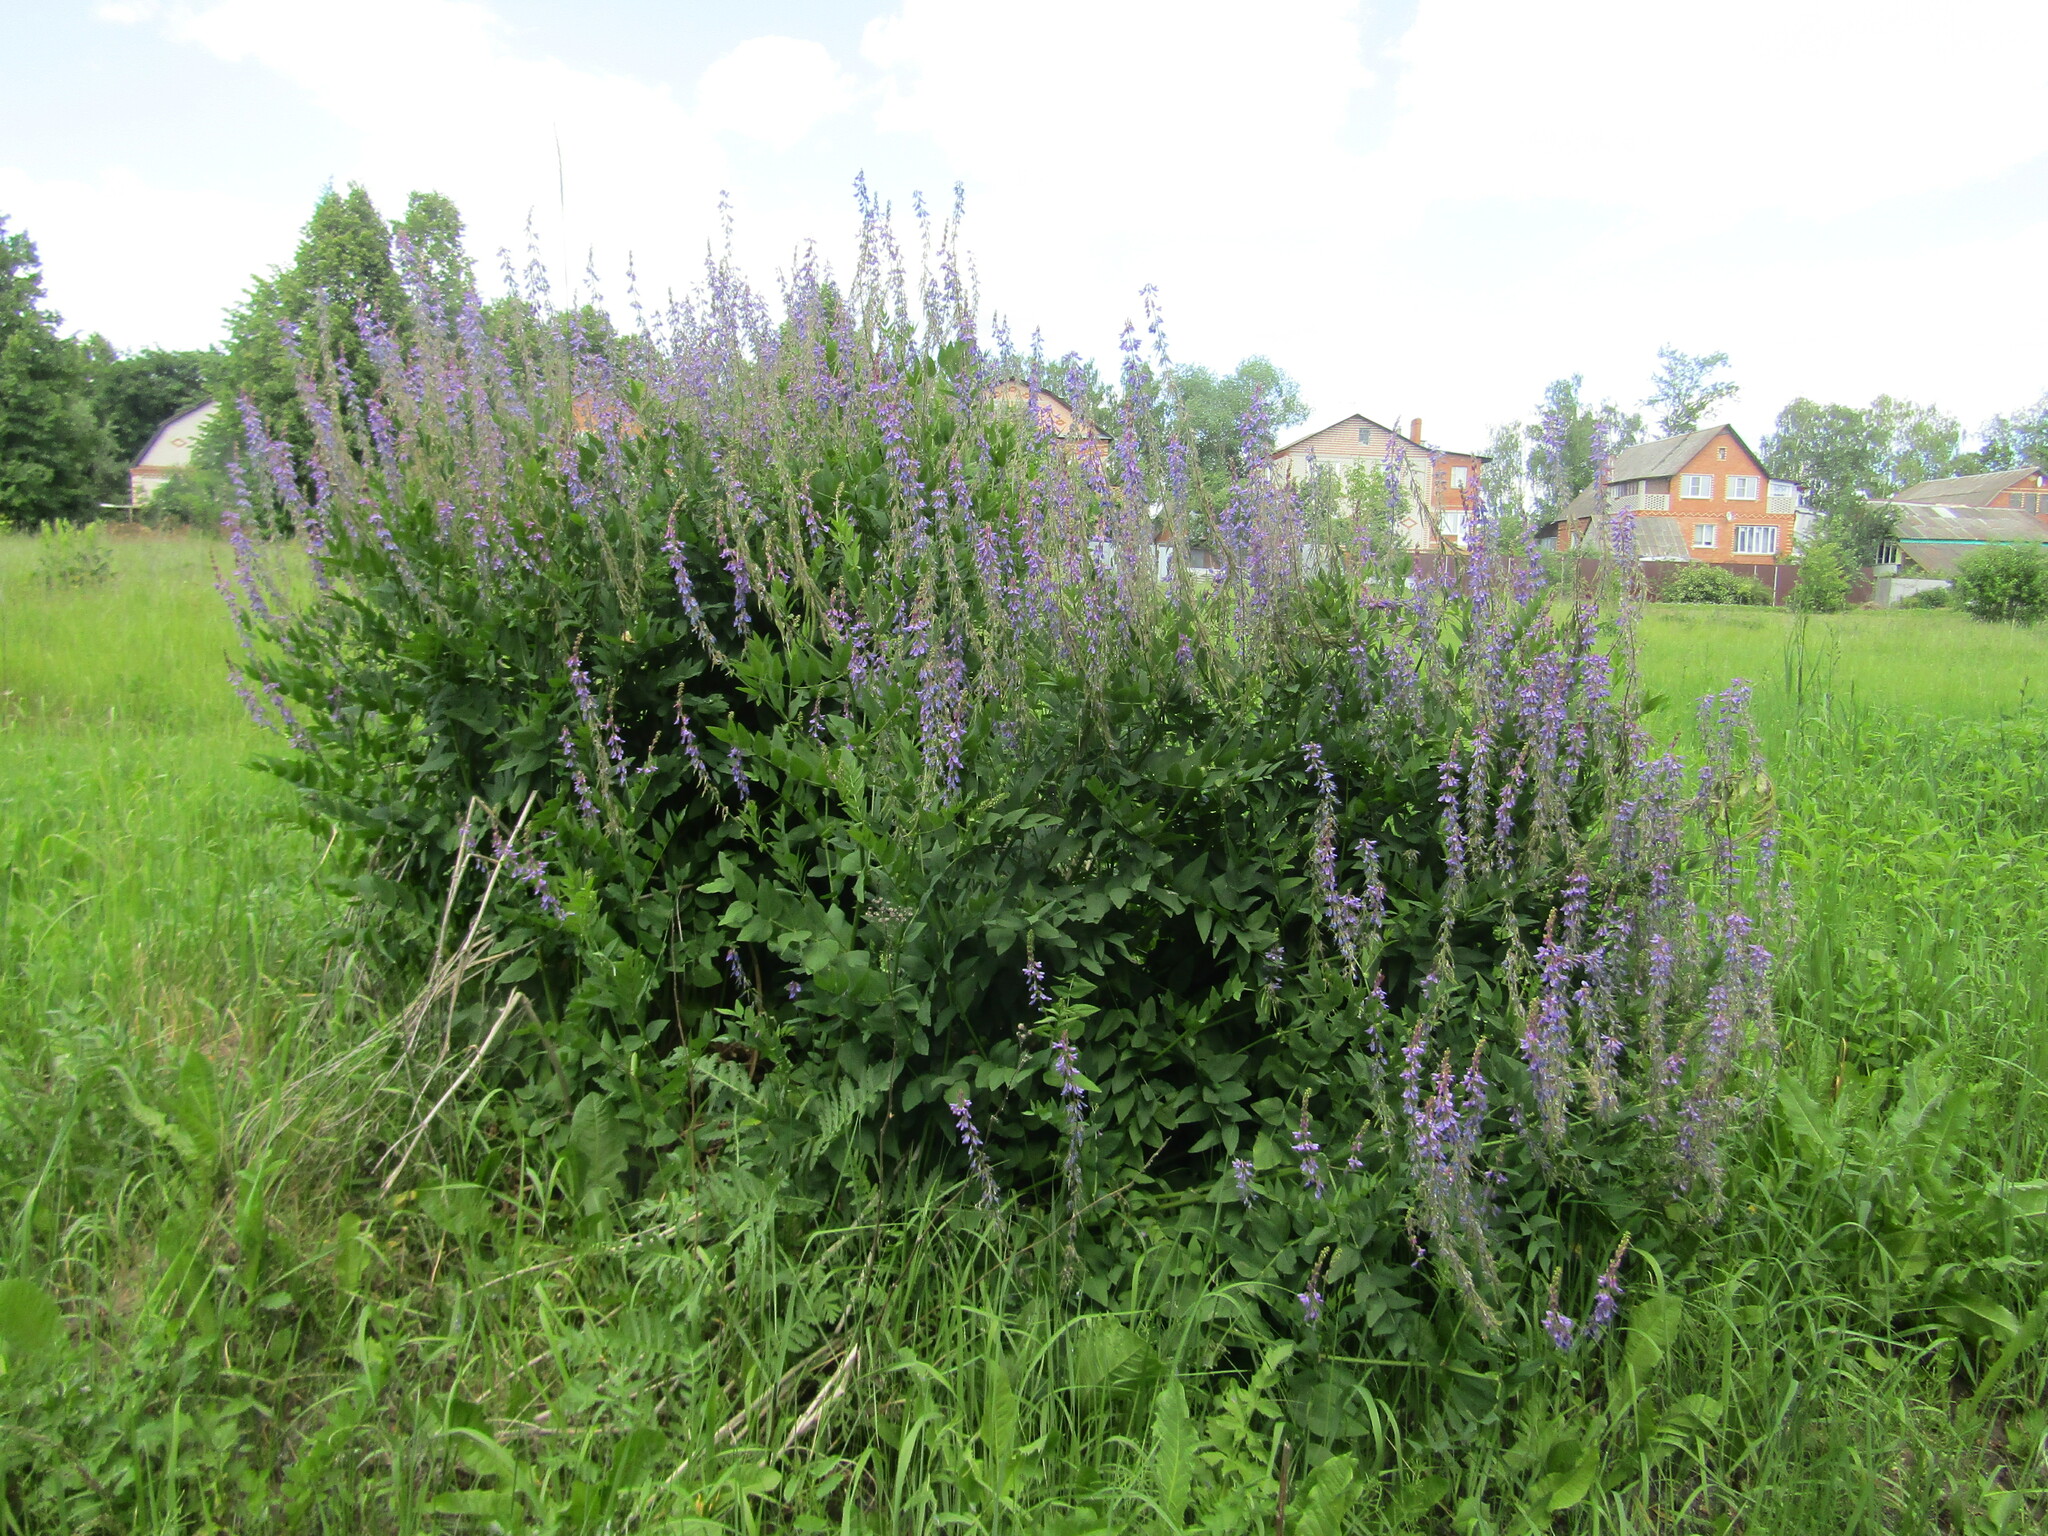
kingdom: Plantae
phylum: Tracheophyta
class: Magnoliopsida
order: Fabales
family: Fabaceae
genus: Galega
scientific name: Galega orientalis
